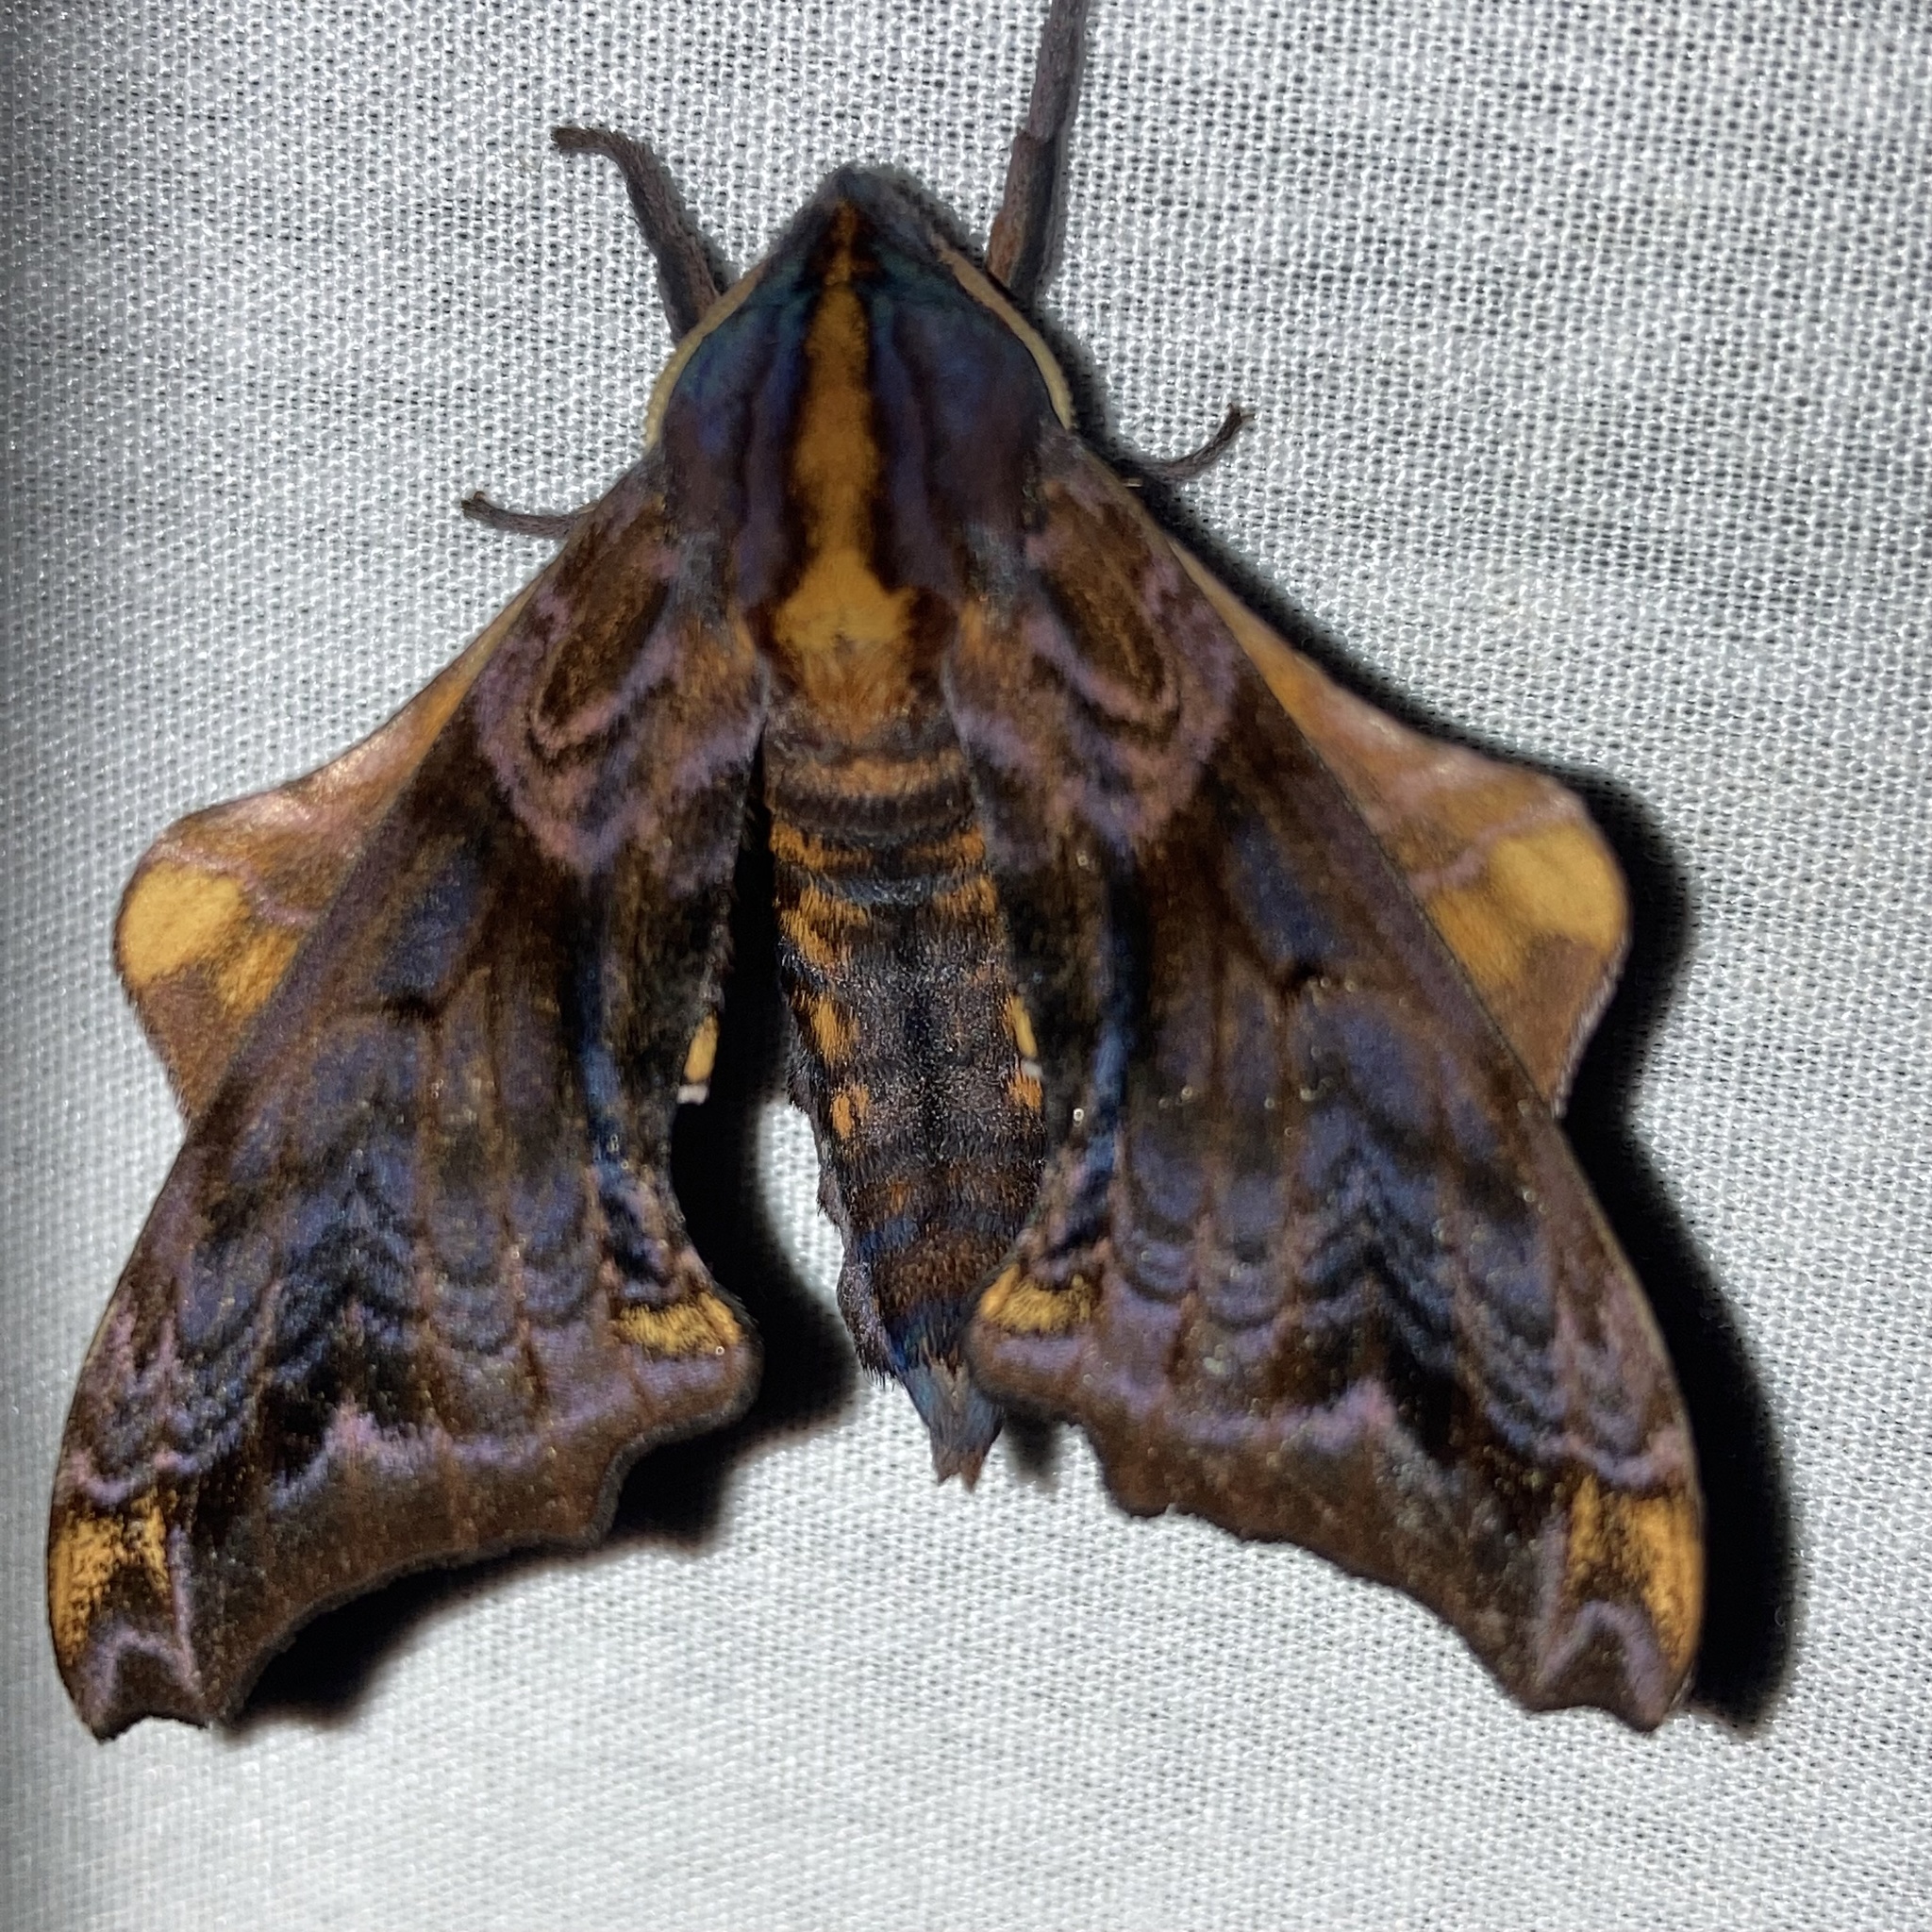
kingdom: Animalia
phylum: Arthropoda
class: Insecta
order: Lepidoptera
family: Sphingidae
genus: Paonias
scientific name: Paonias myops
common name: Small-eyed sphinx
